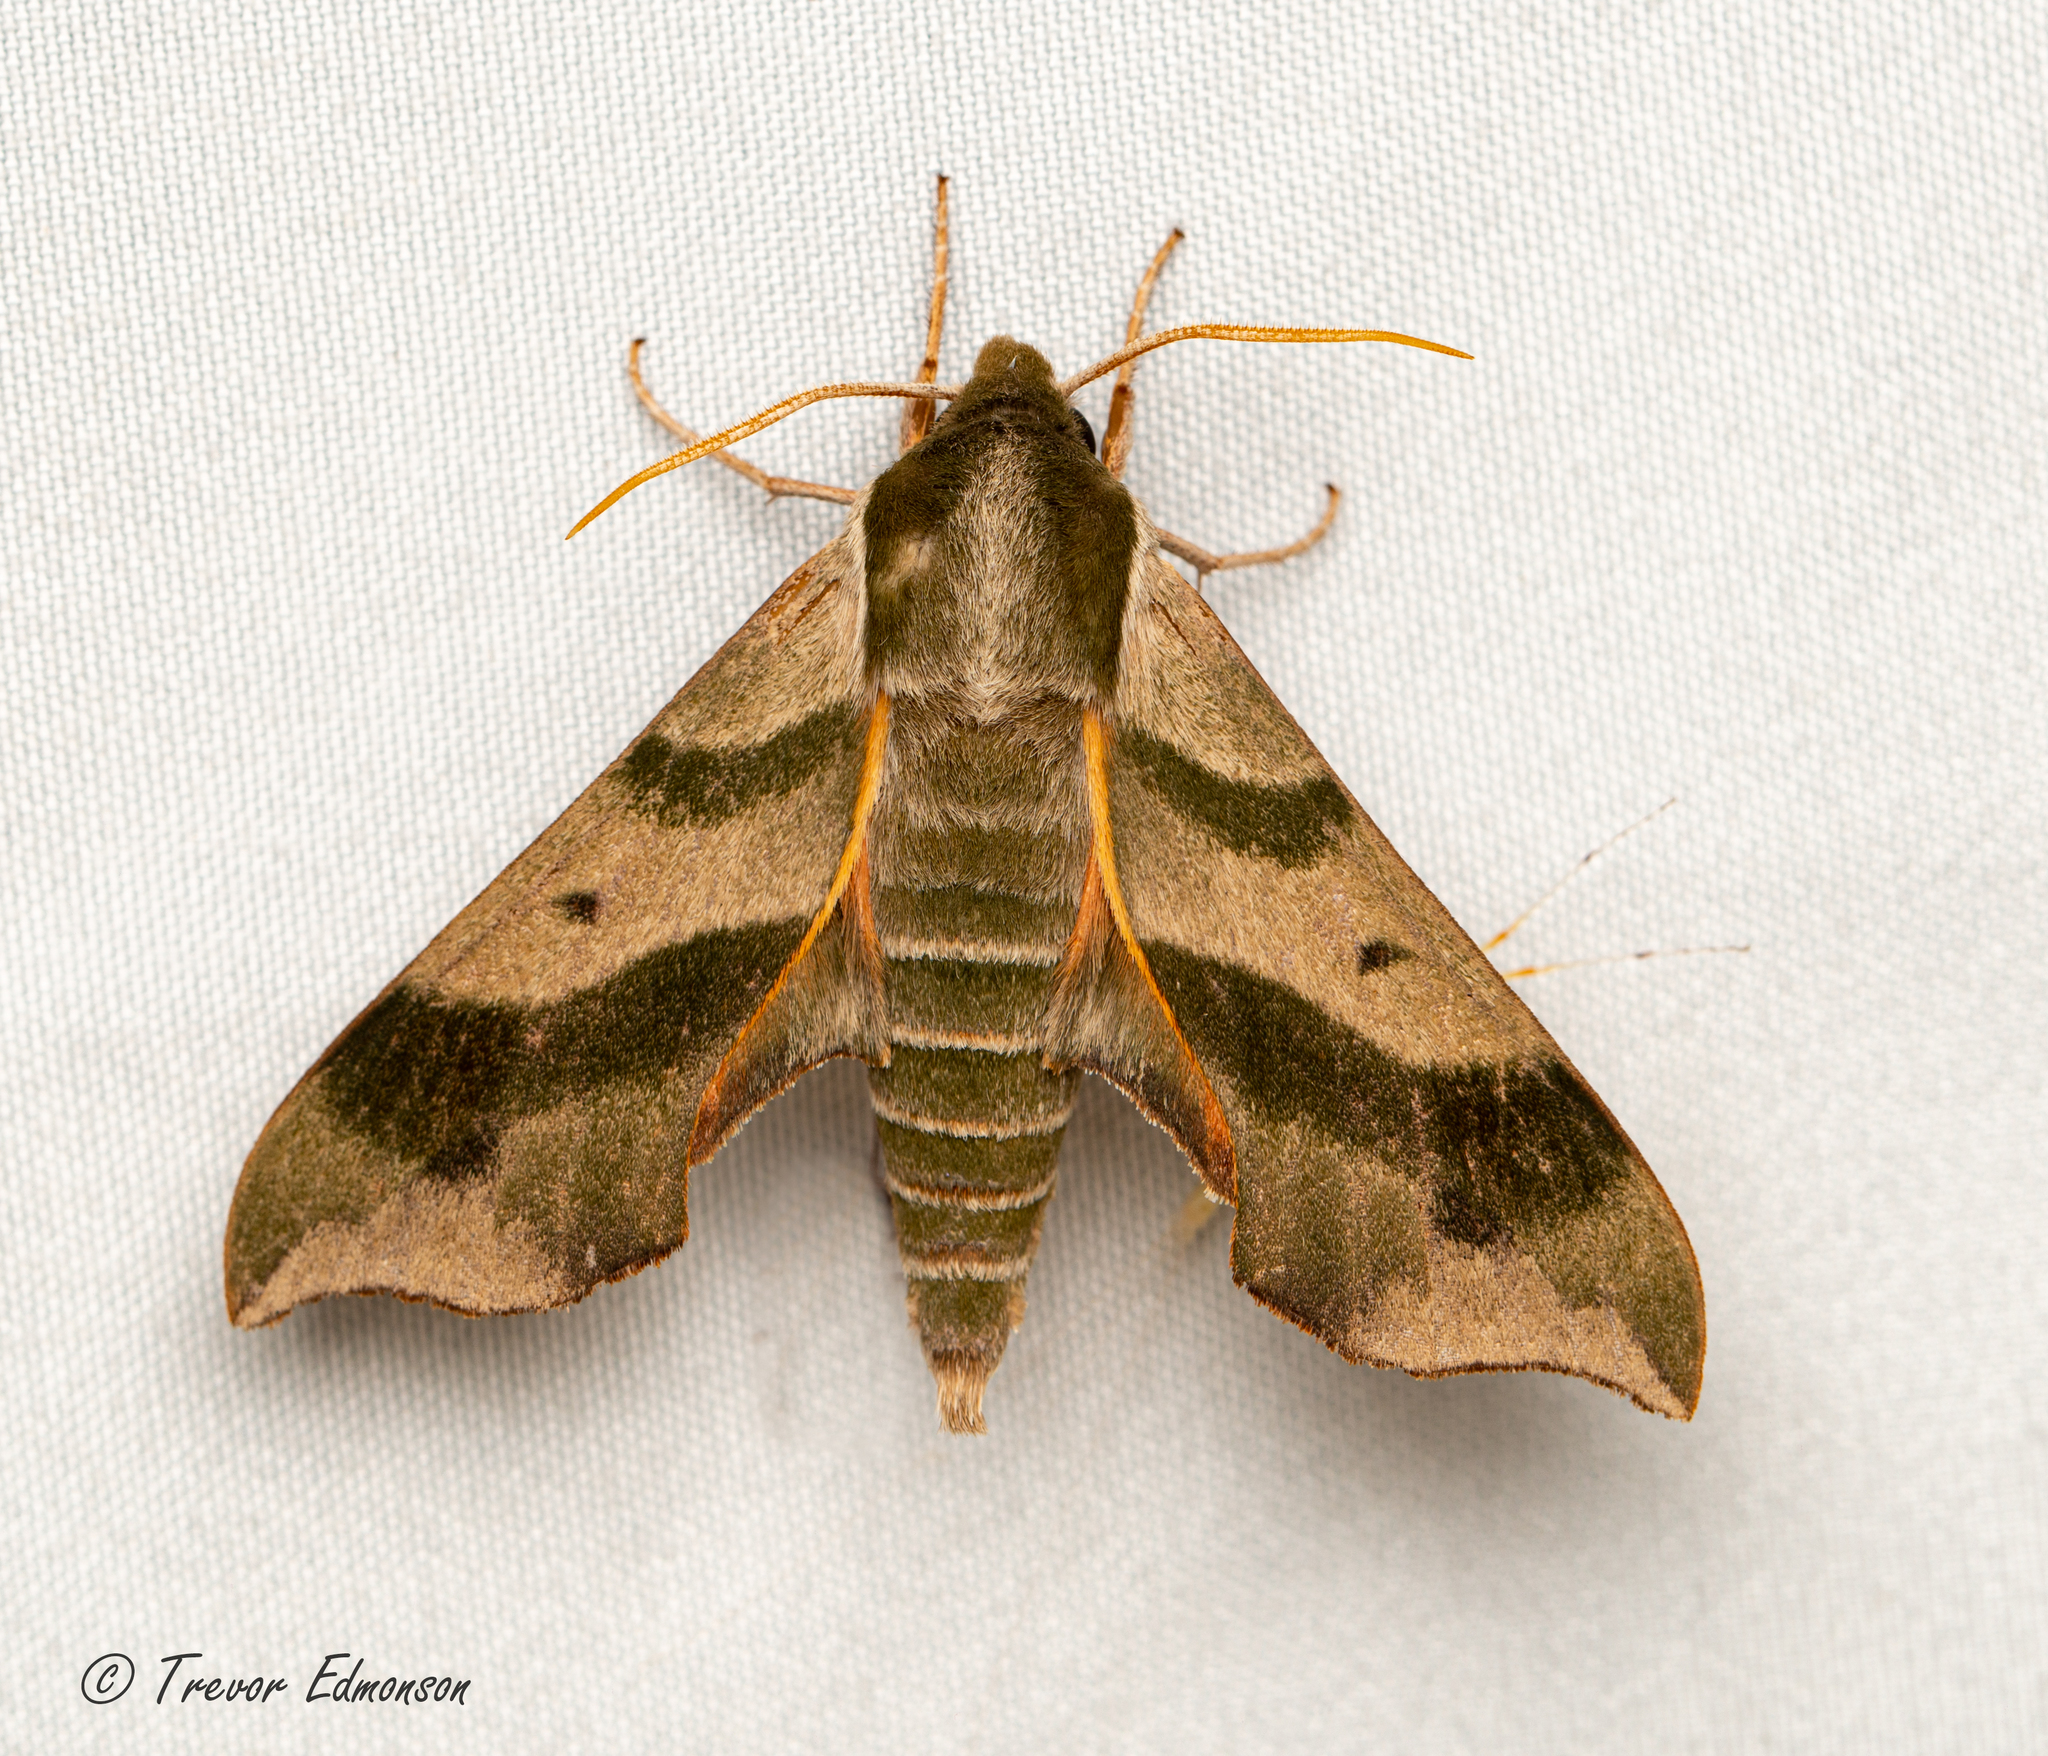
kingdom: Animalia
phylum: Arthropoda
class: Insecta
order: Lepidoptera
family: Sphingidae
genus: Darapsa
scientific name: Darapsa myron
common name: Hog sphinx
